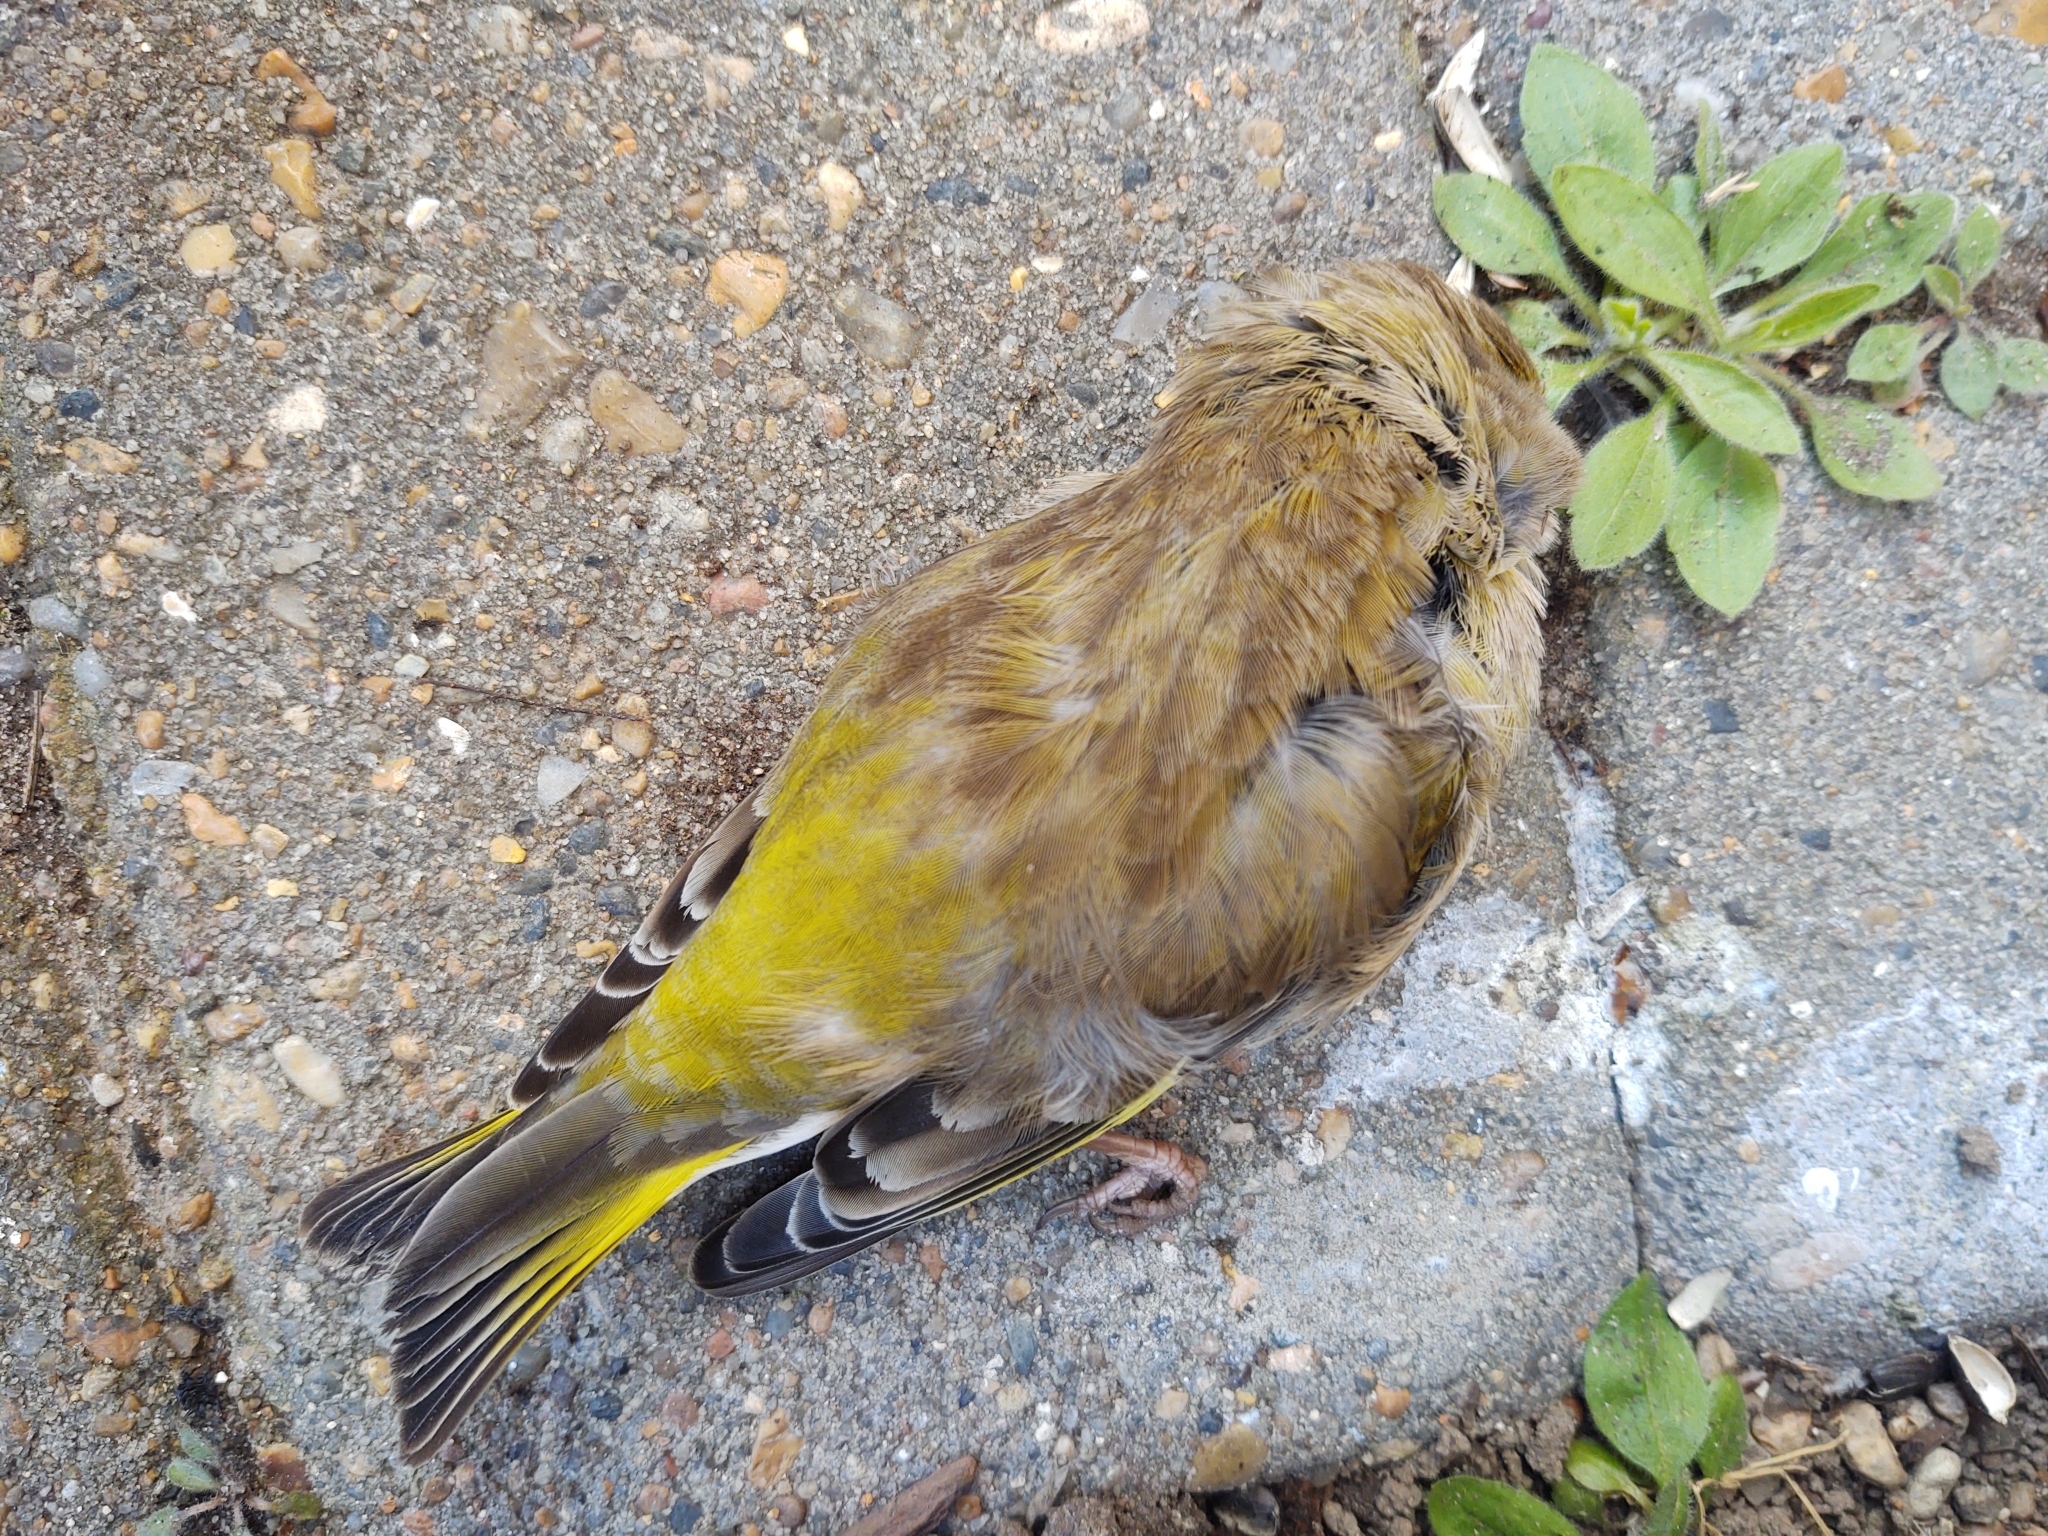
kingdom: Plantae
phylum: Tracheophyta
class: Liliopsida
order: Poales
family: Poaceae
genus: Chloris
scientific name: Chloris chloris
